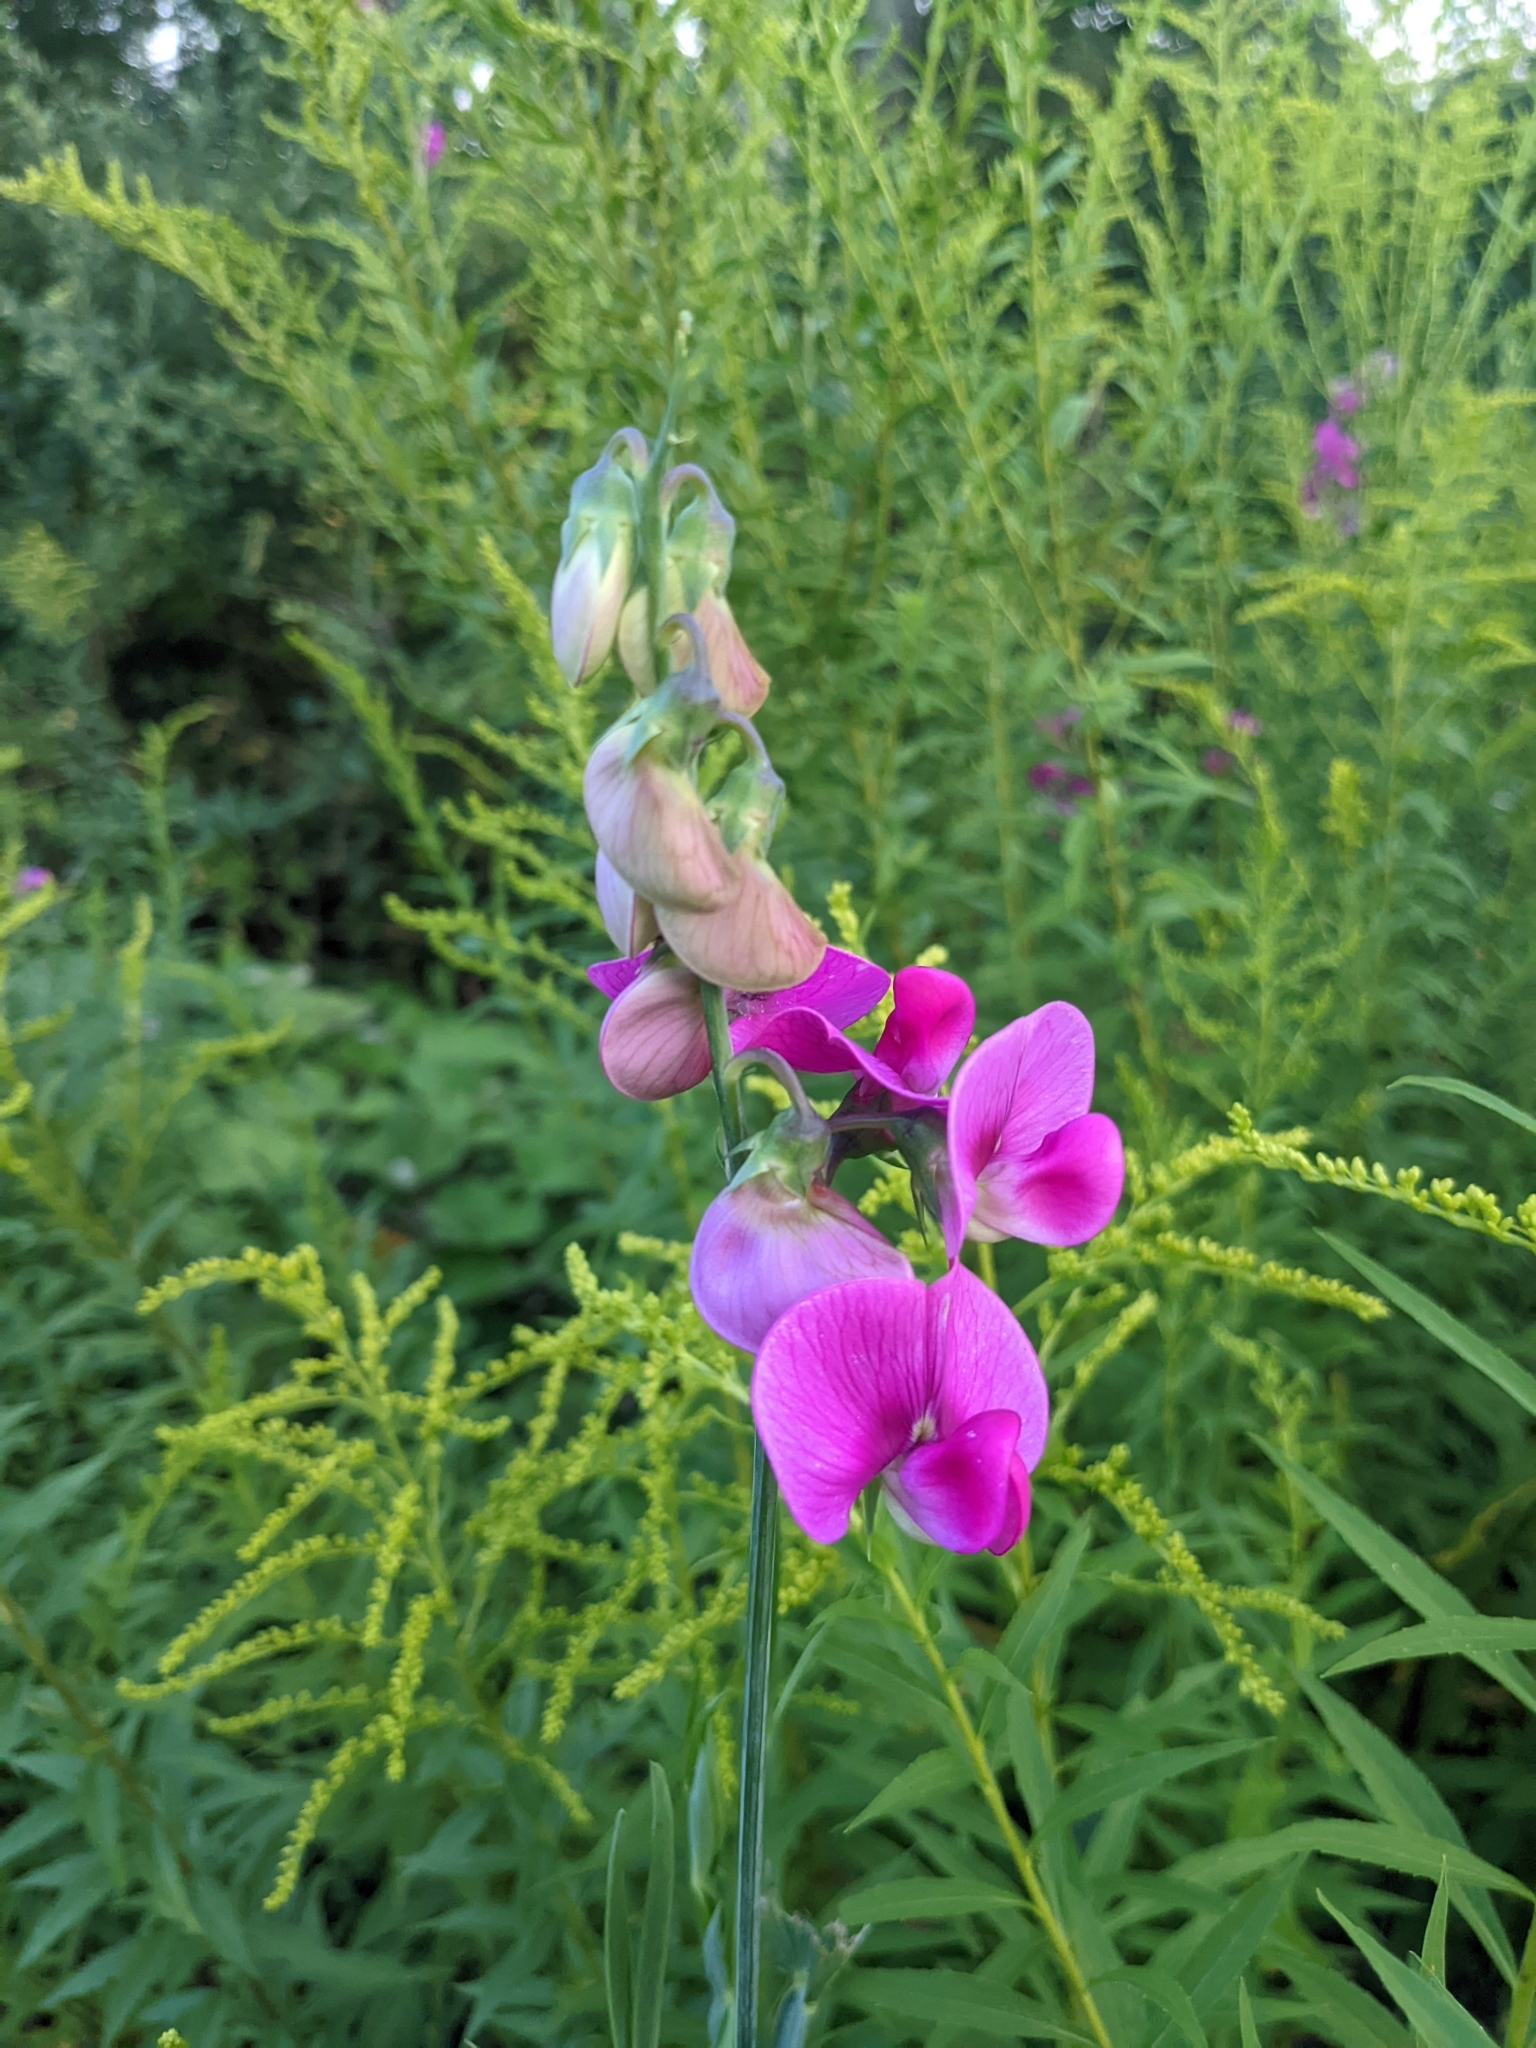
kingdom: Plantae
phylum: Tracheophyta
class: Magnoliopsida
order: Fabales
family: Fabaceae
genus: Lathyrus
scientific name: Lathyrus latifolius
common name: Perennial pea
